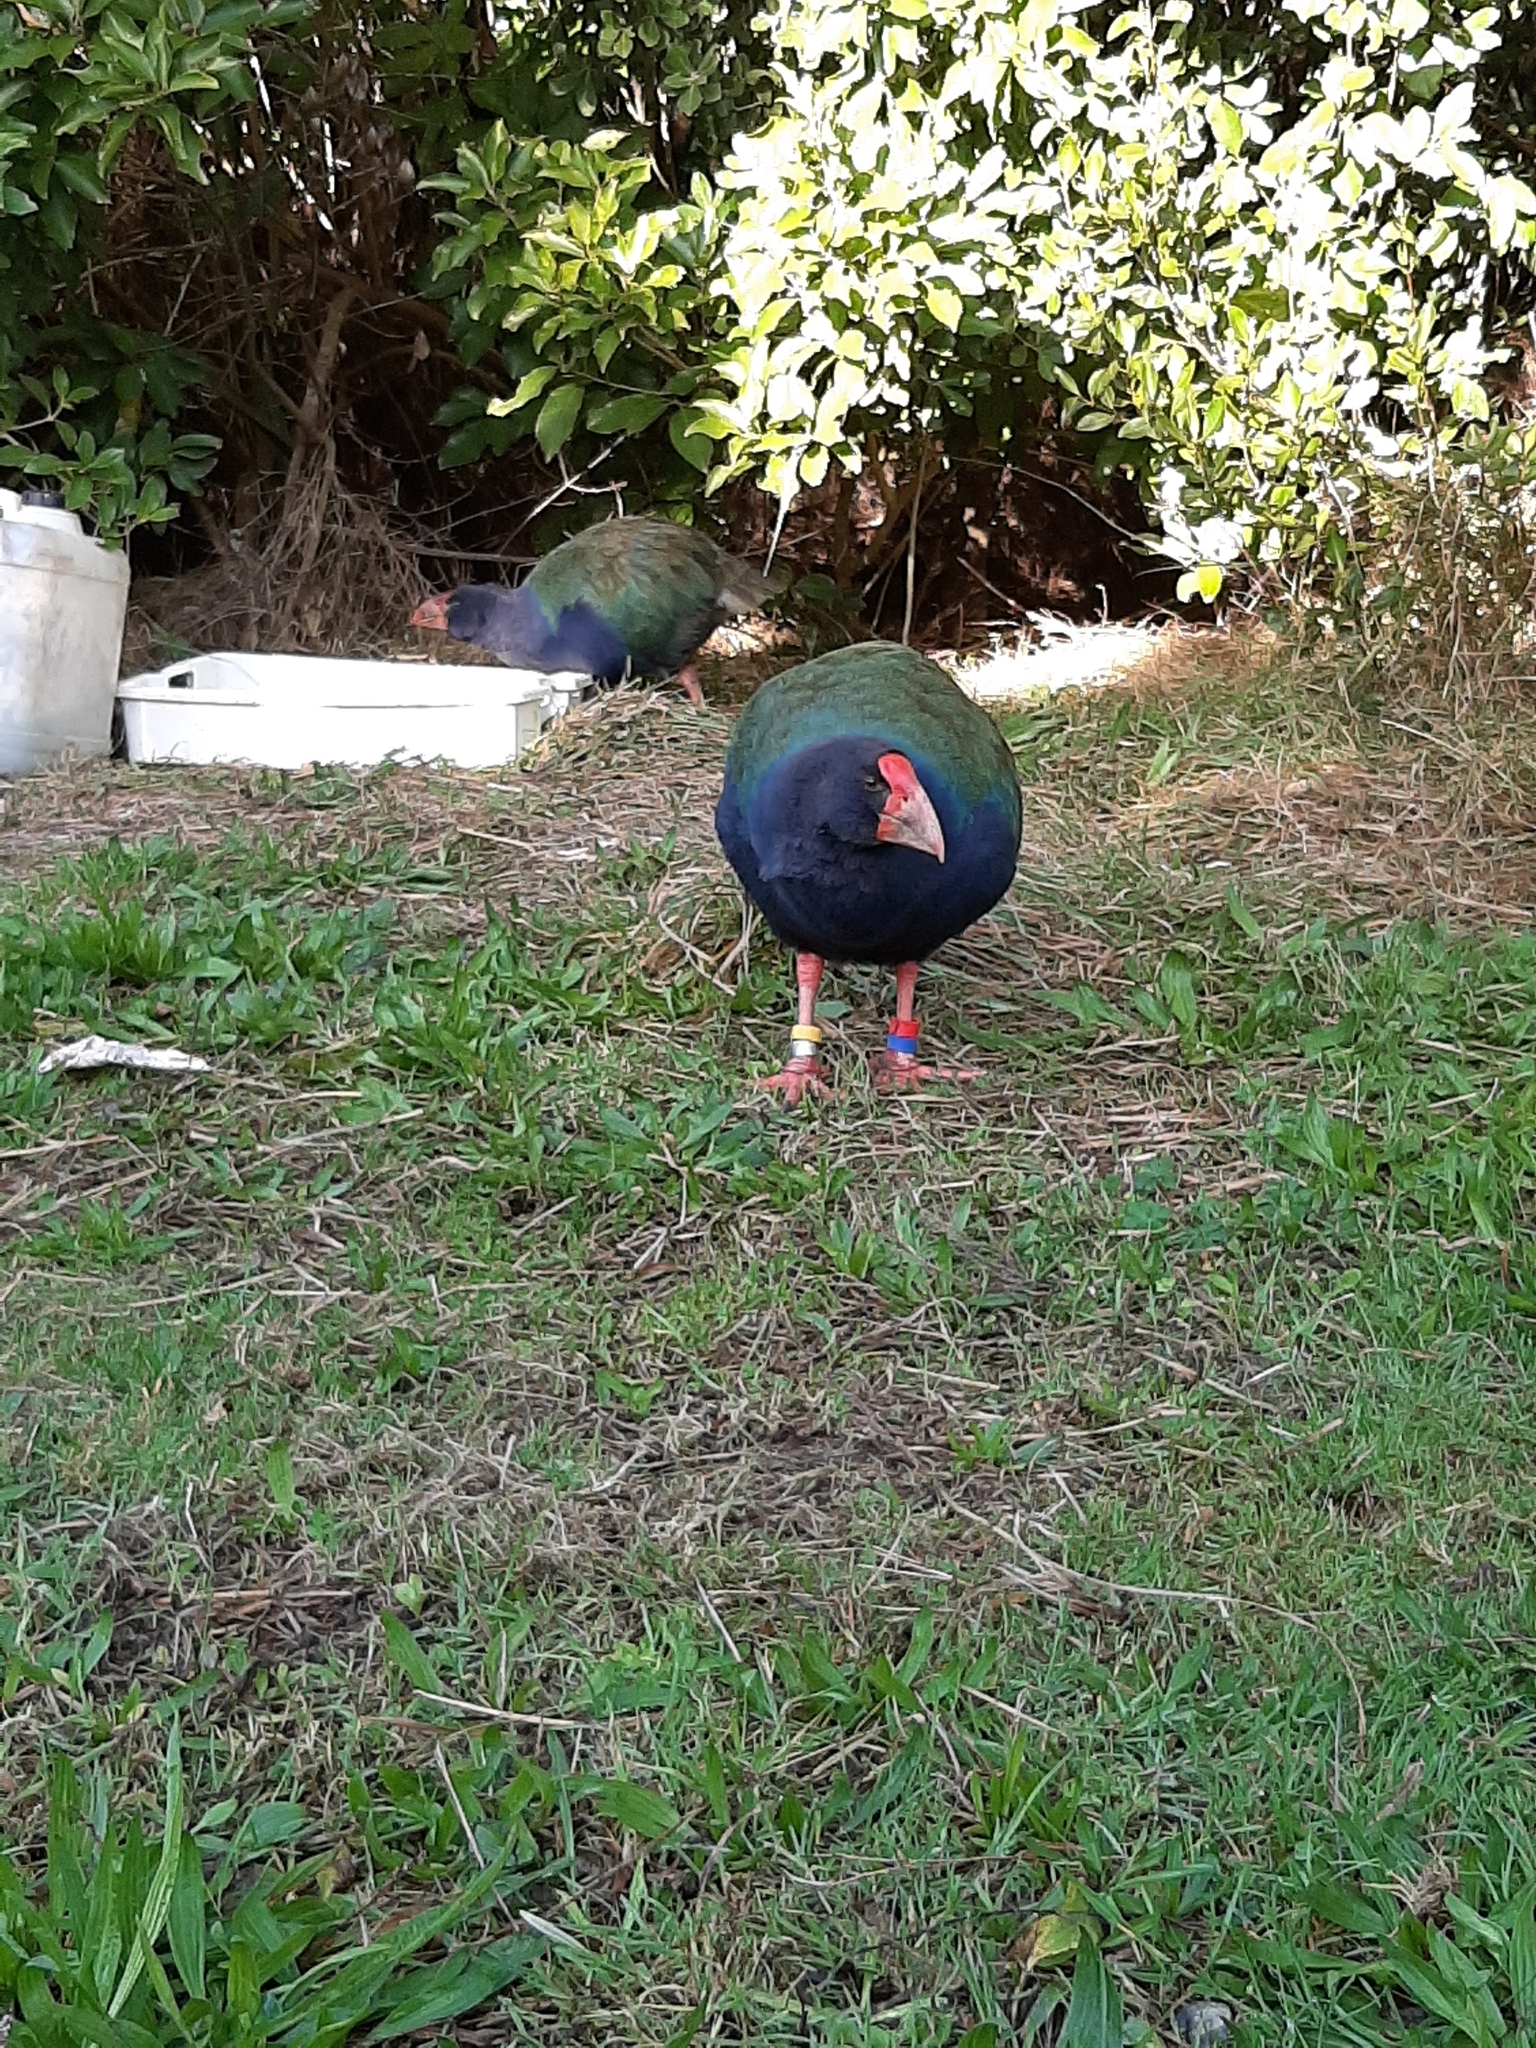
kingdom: Animalia
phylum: Chordata
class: Aves
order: Gruiformes
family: Rallidae
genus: Porphyrio
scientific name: Porphyrio hochstetteri
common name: South island takahe
